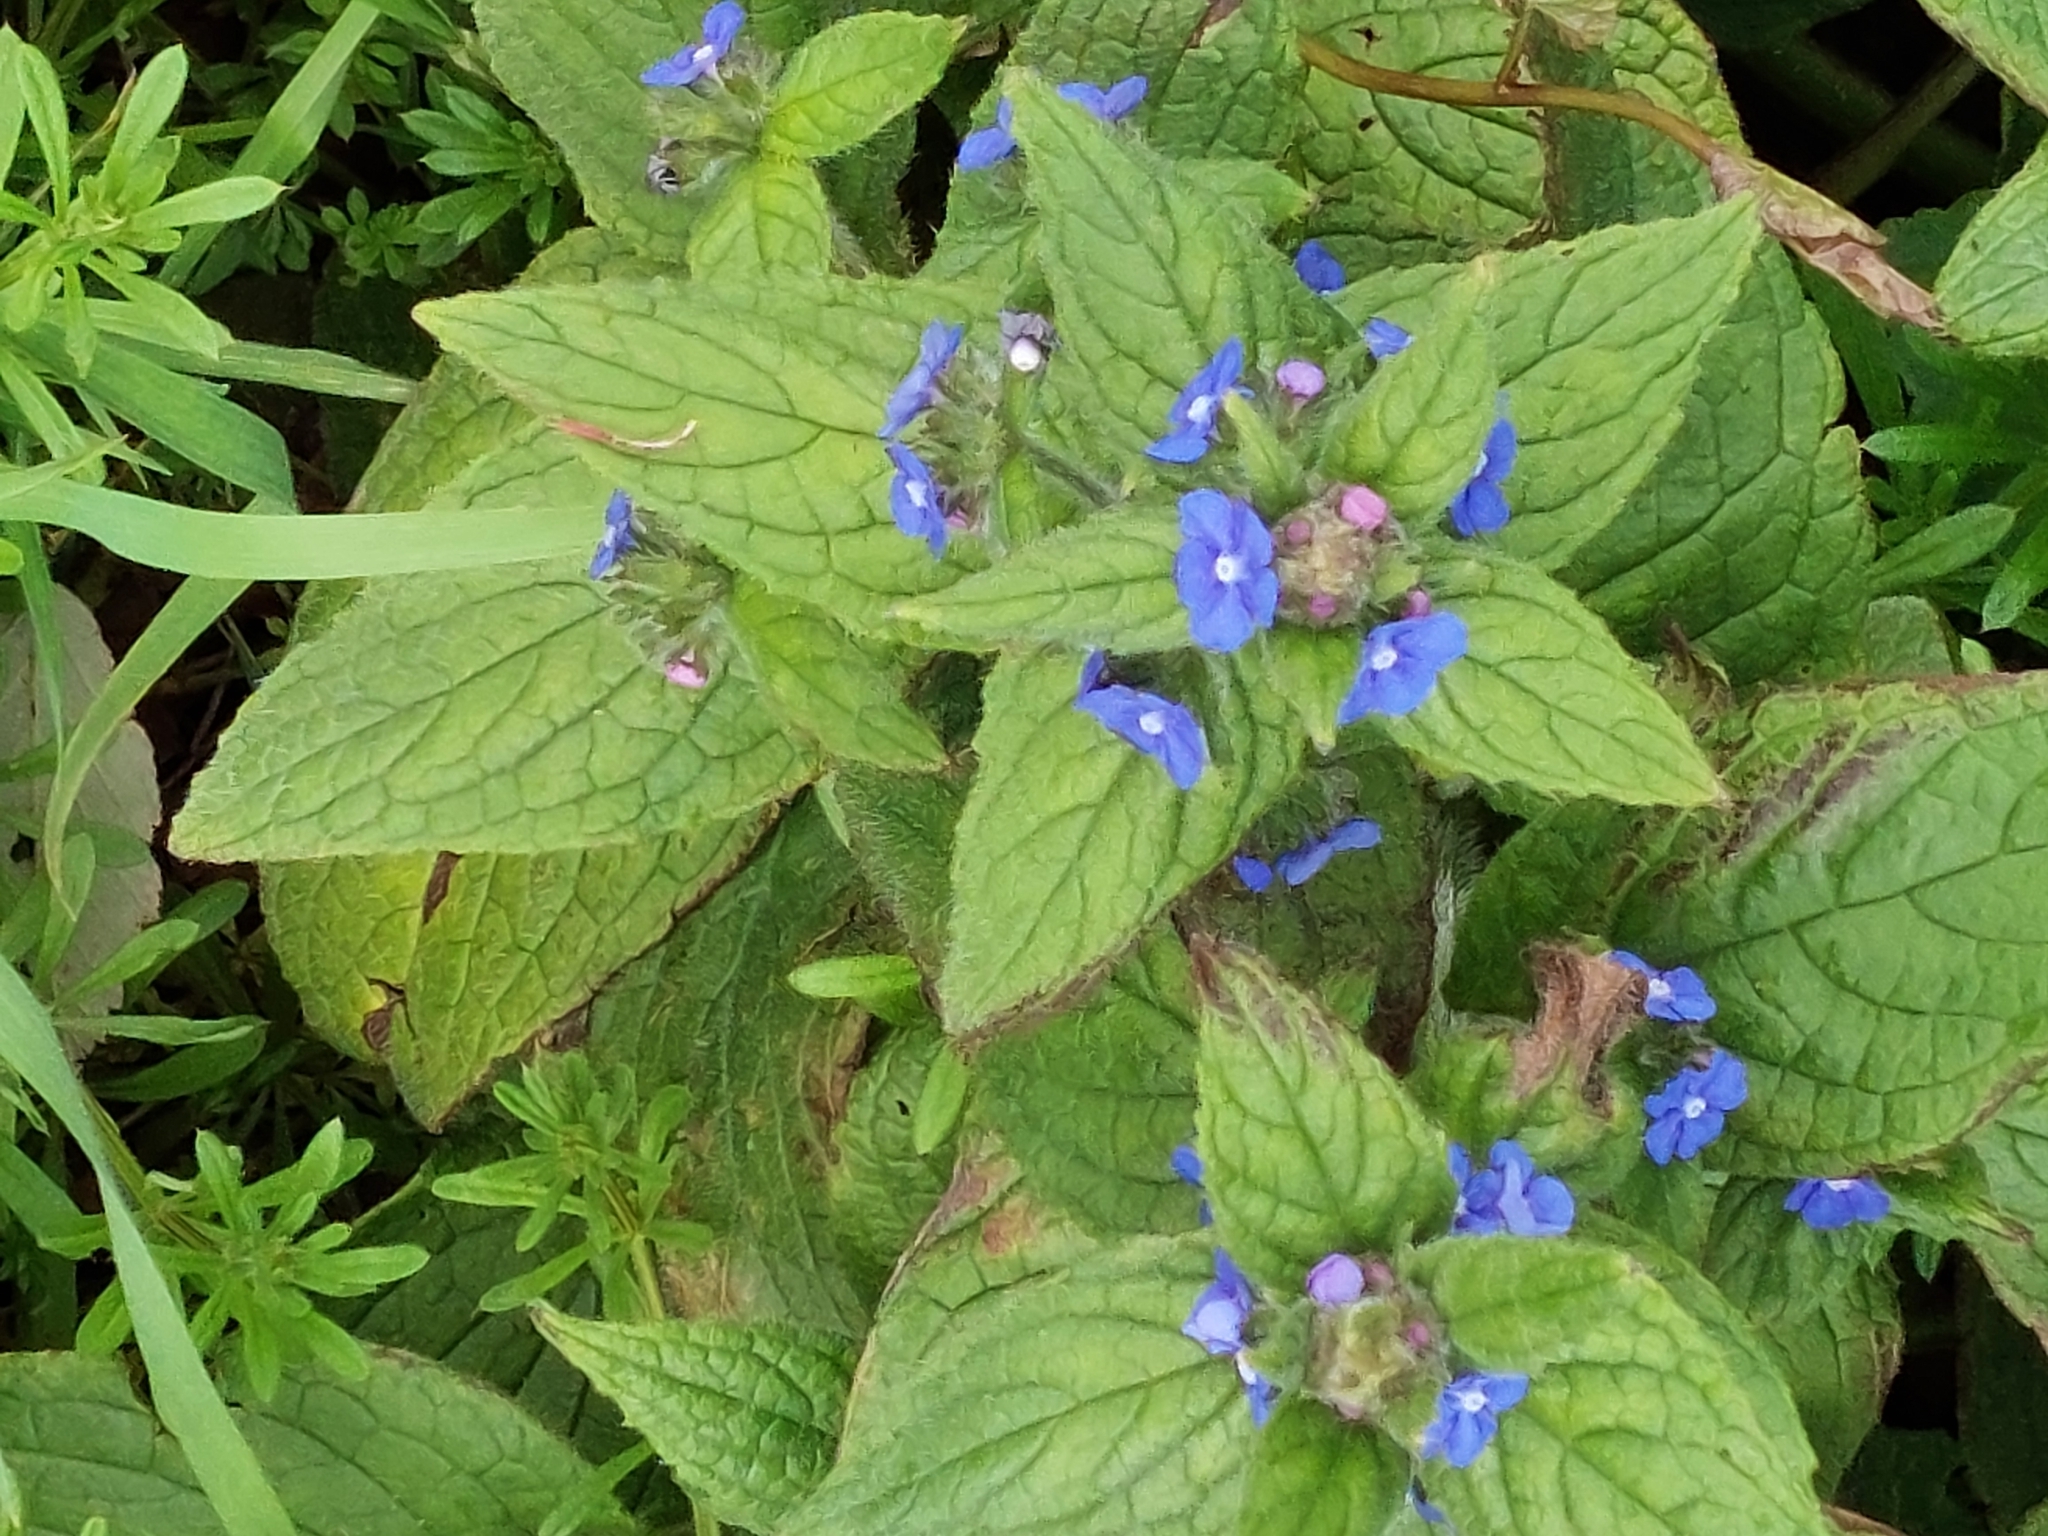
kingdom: Plantae
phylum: Tracheophyta
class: Magnoliopsida
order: Boraginales
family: Boraginaceae
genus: Pentaglottis
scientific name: Pentaglottis sempervirens
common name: Green alkanet
